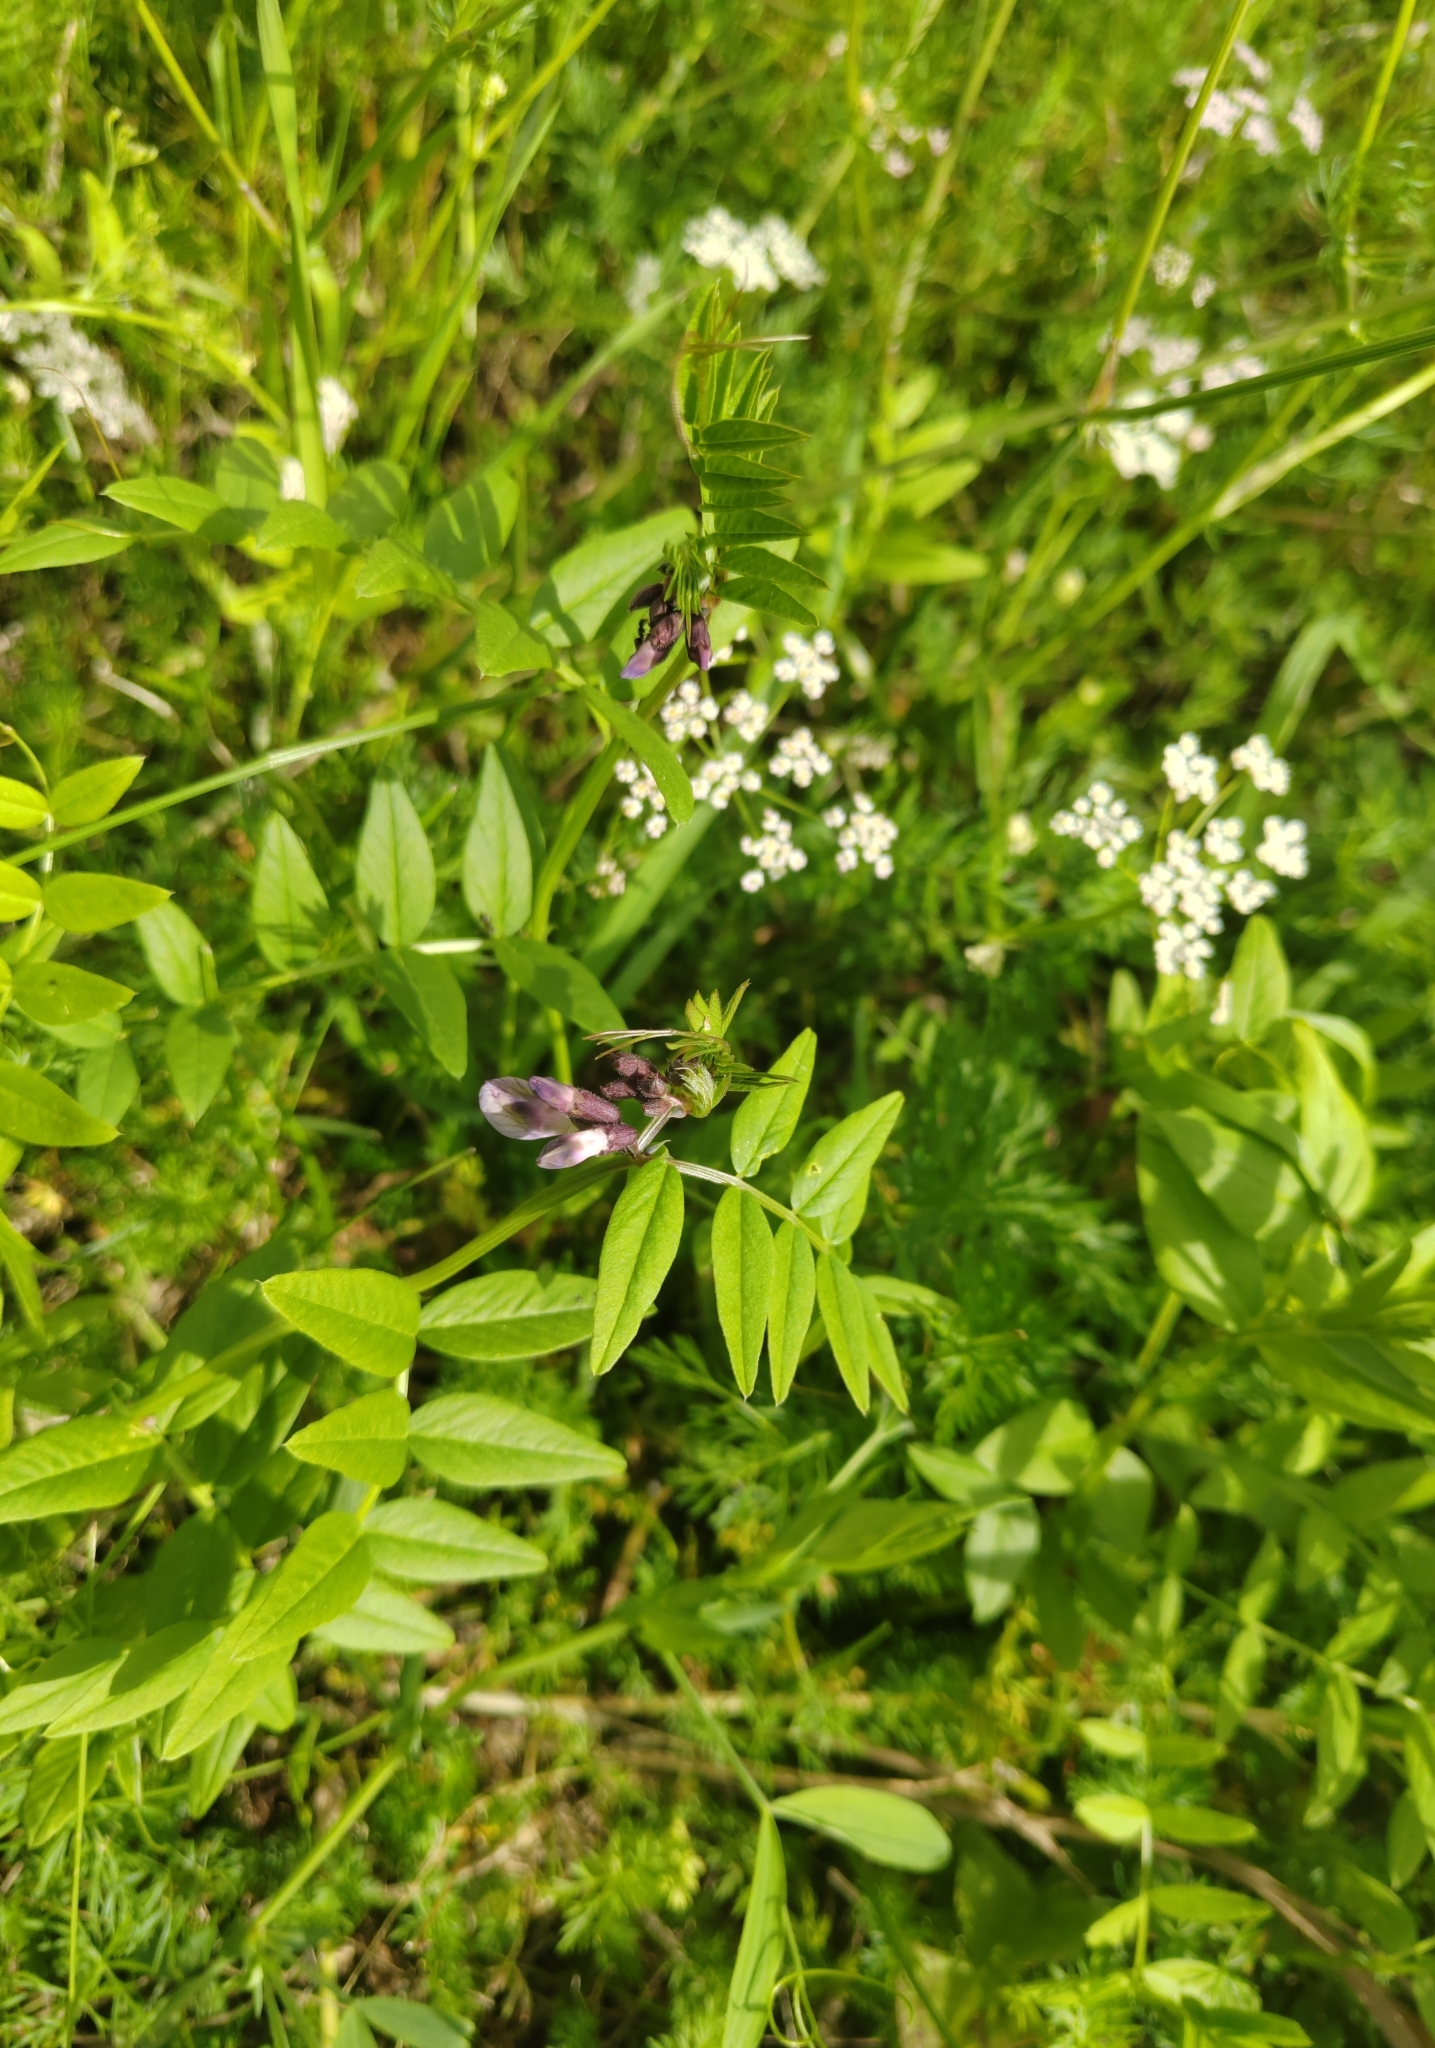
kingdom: Plantae
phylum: Tracheophyta
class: Magnoliopsida
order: Fabales
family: Fabaceae
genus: Vicia
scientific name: Vicia sepium
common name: Bush vetch
